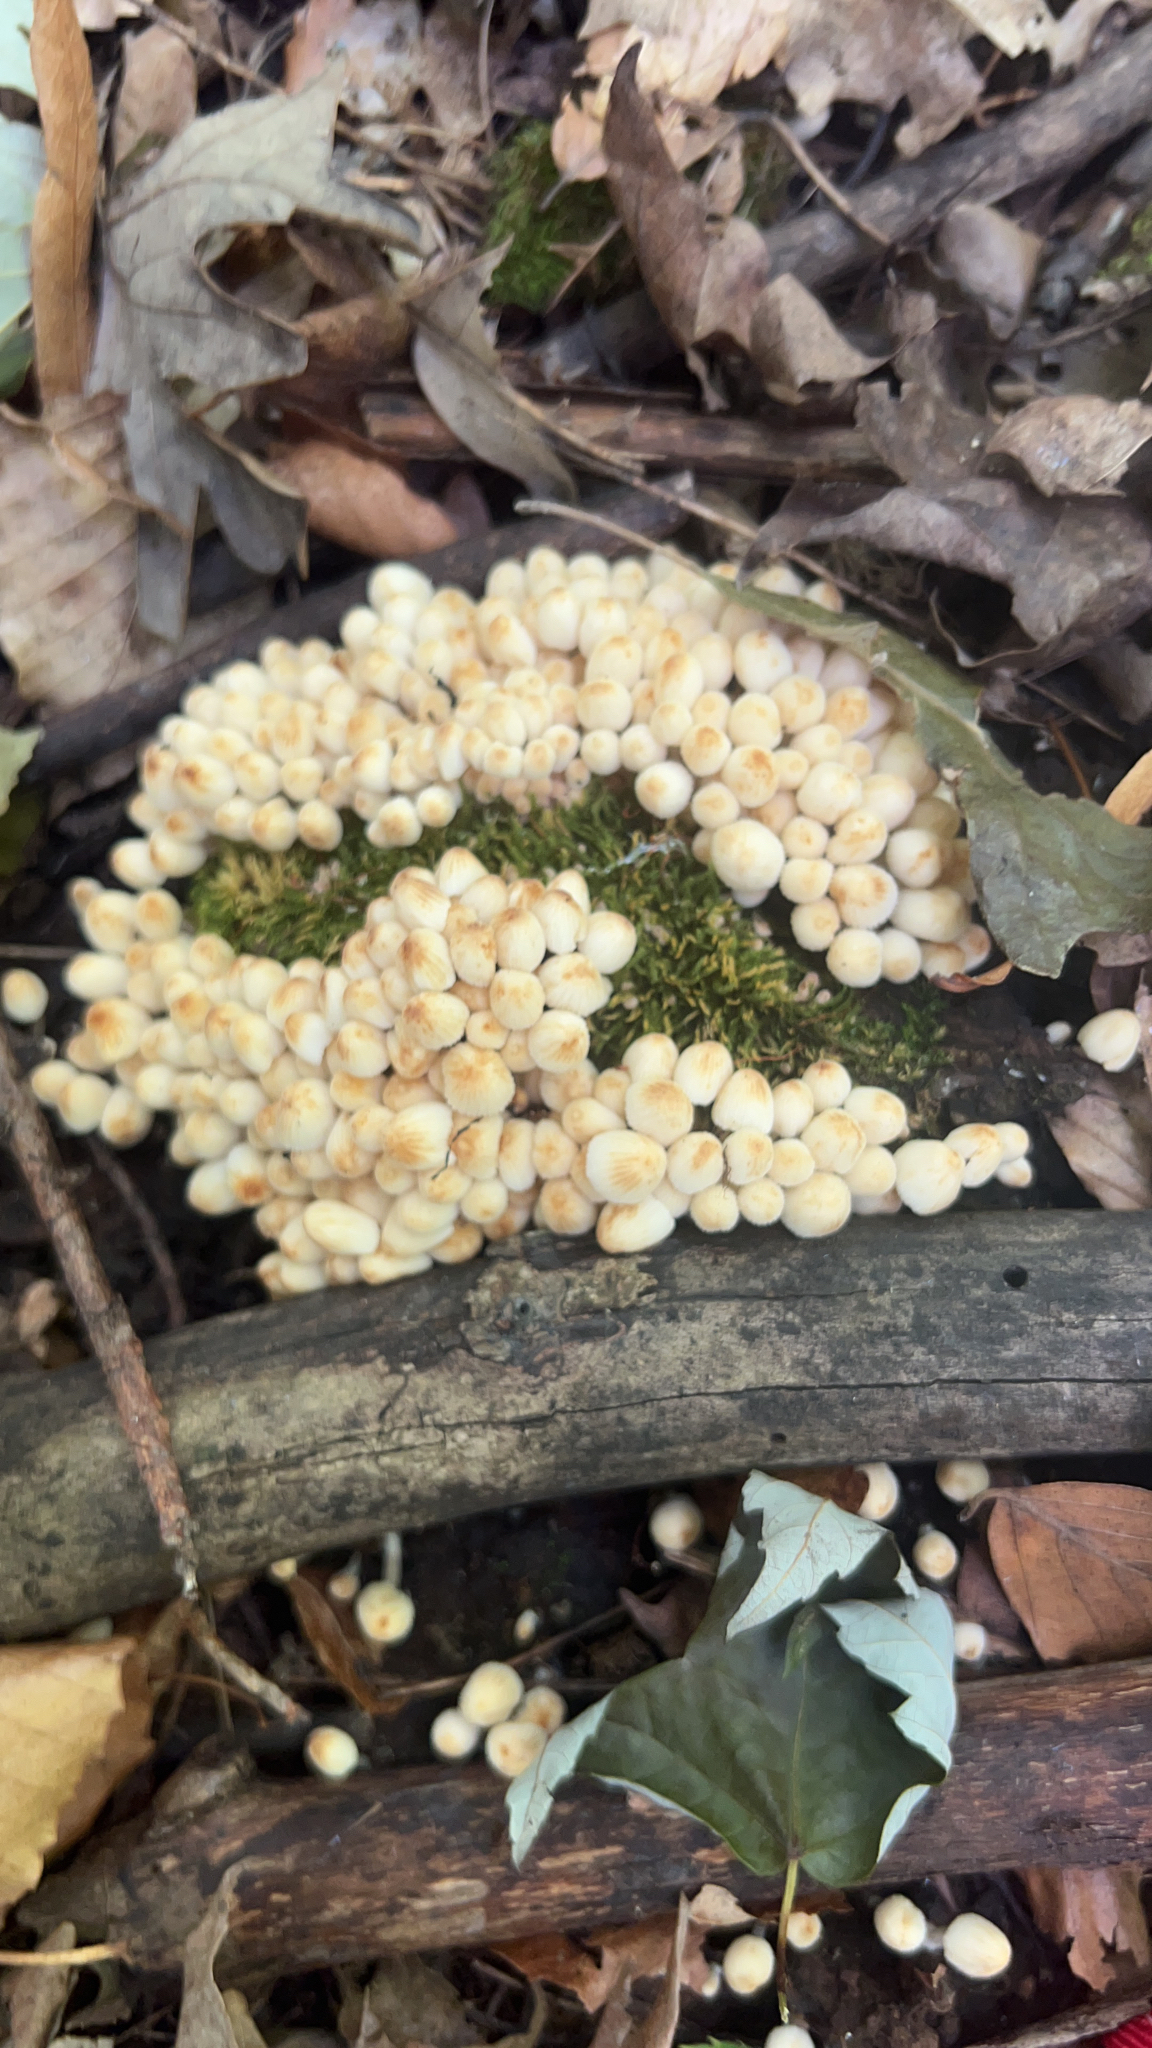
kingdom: Fungi
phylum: Basidiomycota
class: Agaricomycetes
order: Agaricales
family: Psathyrellaceae
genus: Coprinellus
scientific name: Coprinellus disseminatus
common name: Fairies' bonnets
